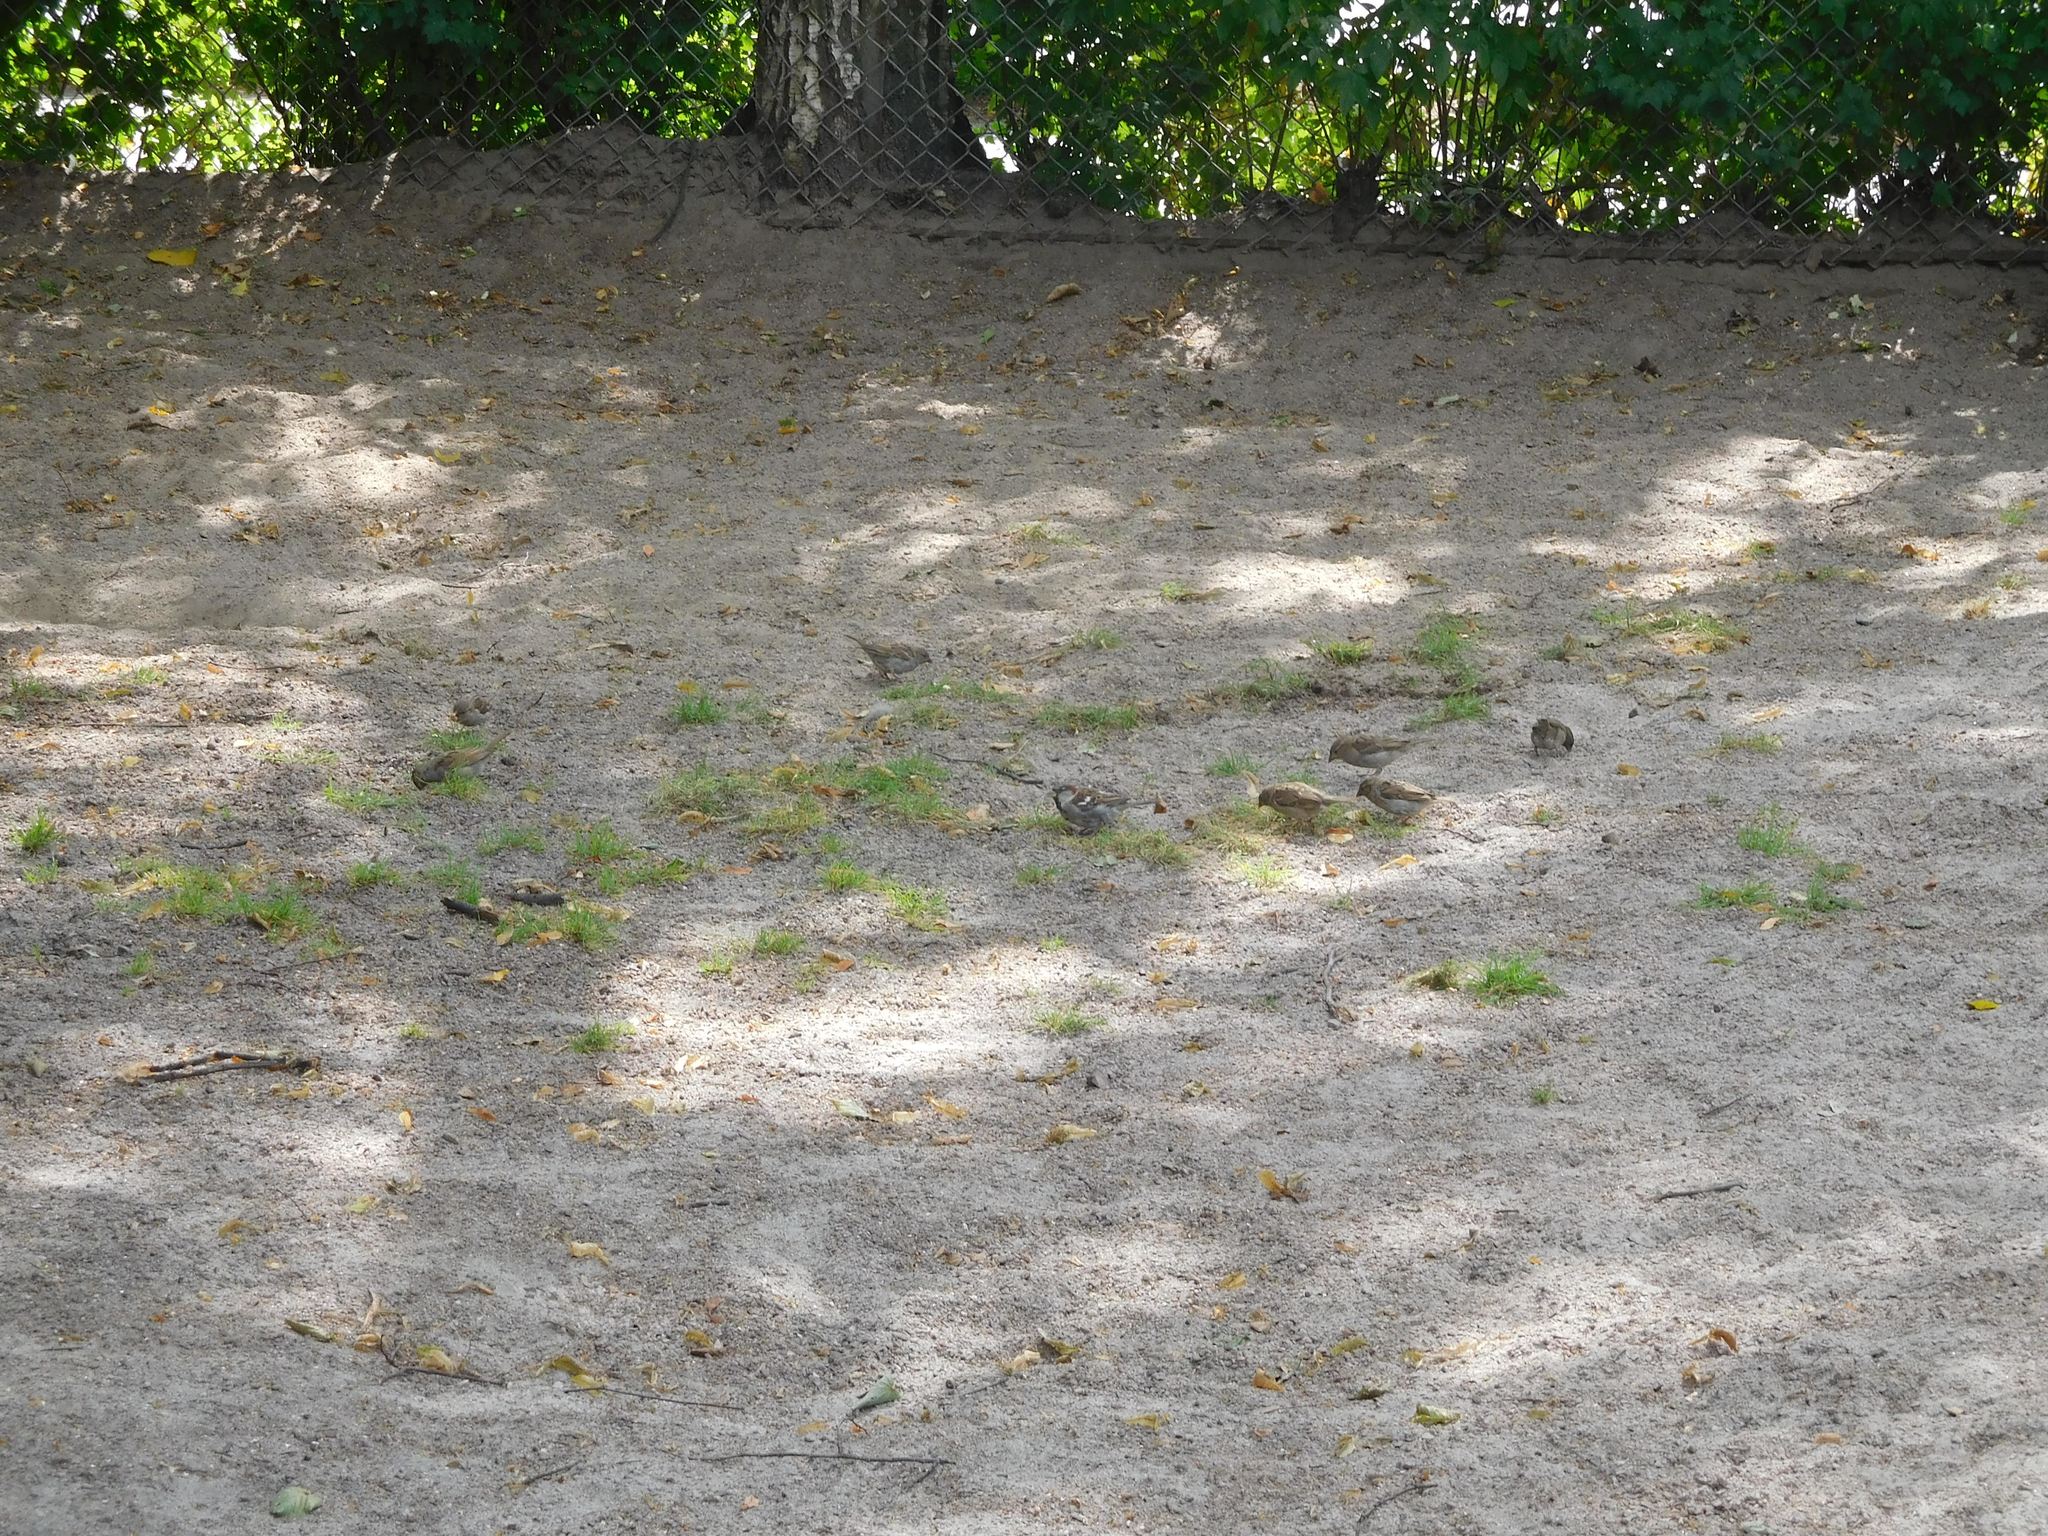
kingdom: Animalia
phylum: Chordata
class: Aves
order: Passeriformes
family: Passeridae
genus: Passer
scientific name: Passer domesticus
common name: House sparrow
